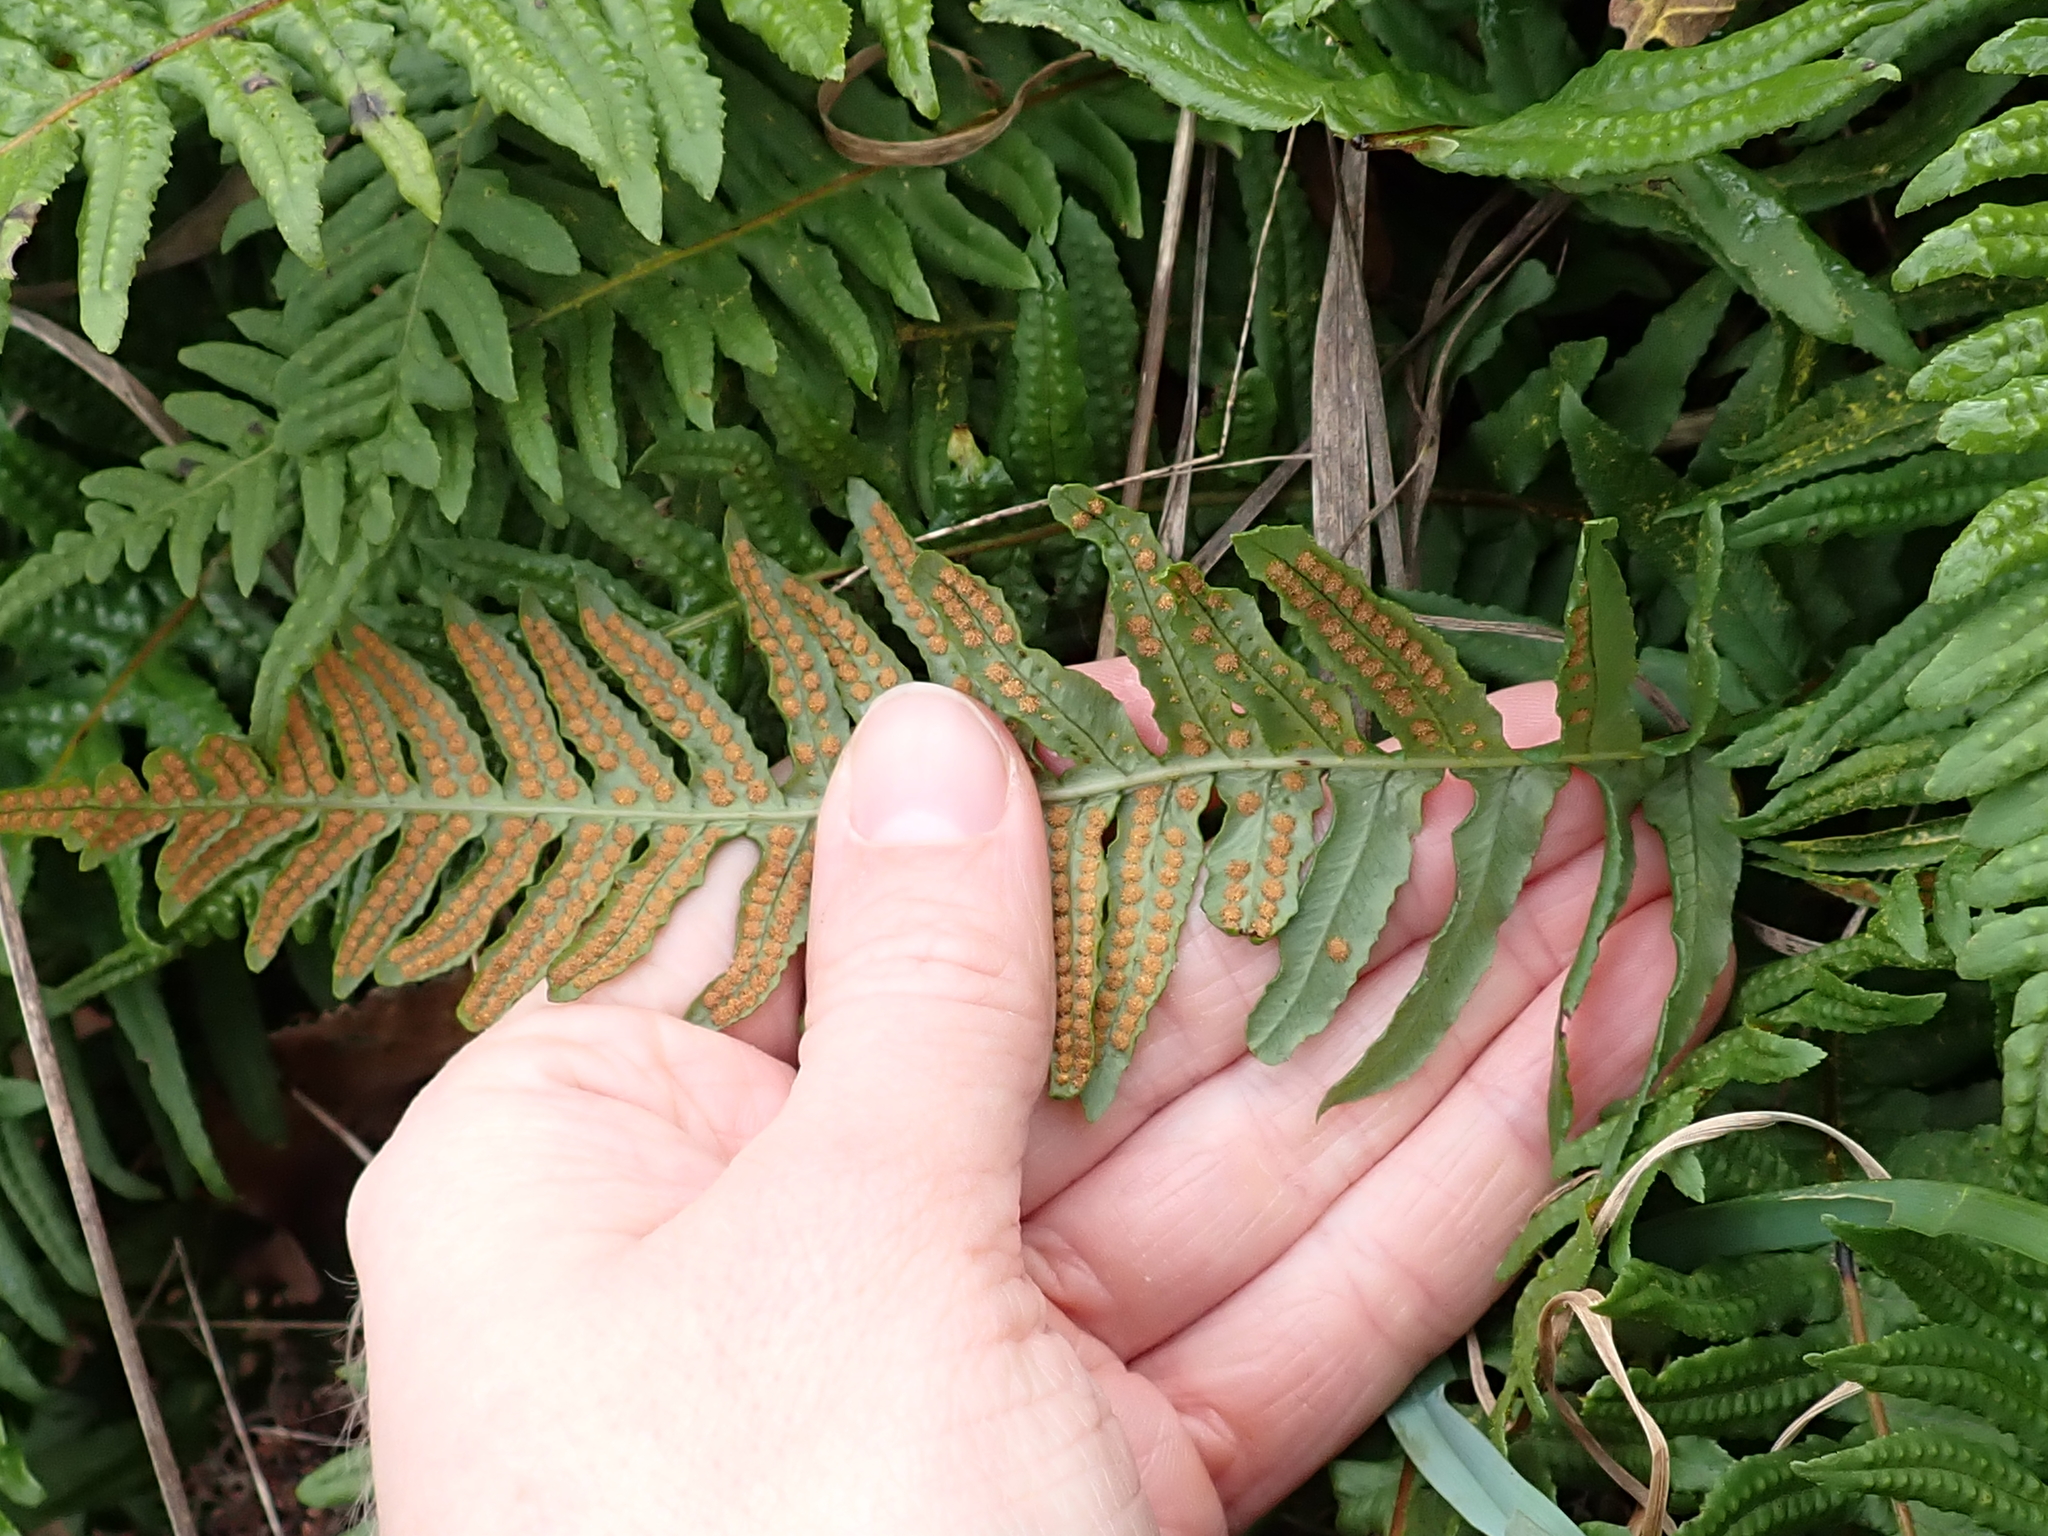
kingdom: Plantae
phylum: Tracheophyta
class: Polypodiopsida
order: Polypodiales
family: Polypodiaceae
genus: Polypodium
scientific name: Polypodium glycyrrhiza
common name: Licorice fern
